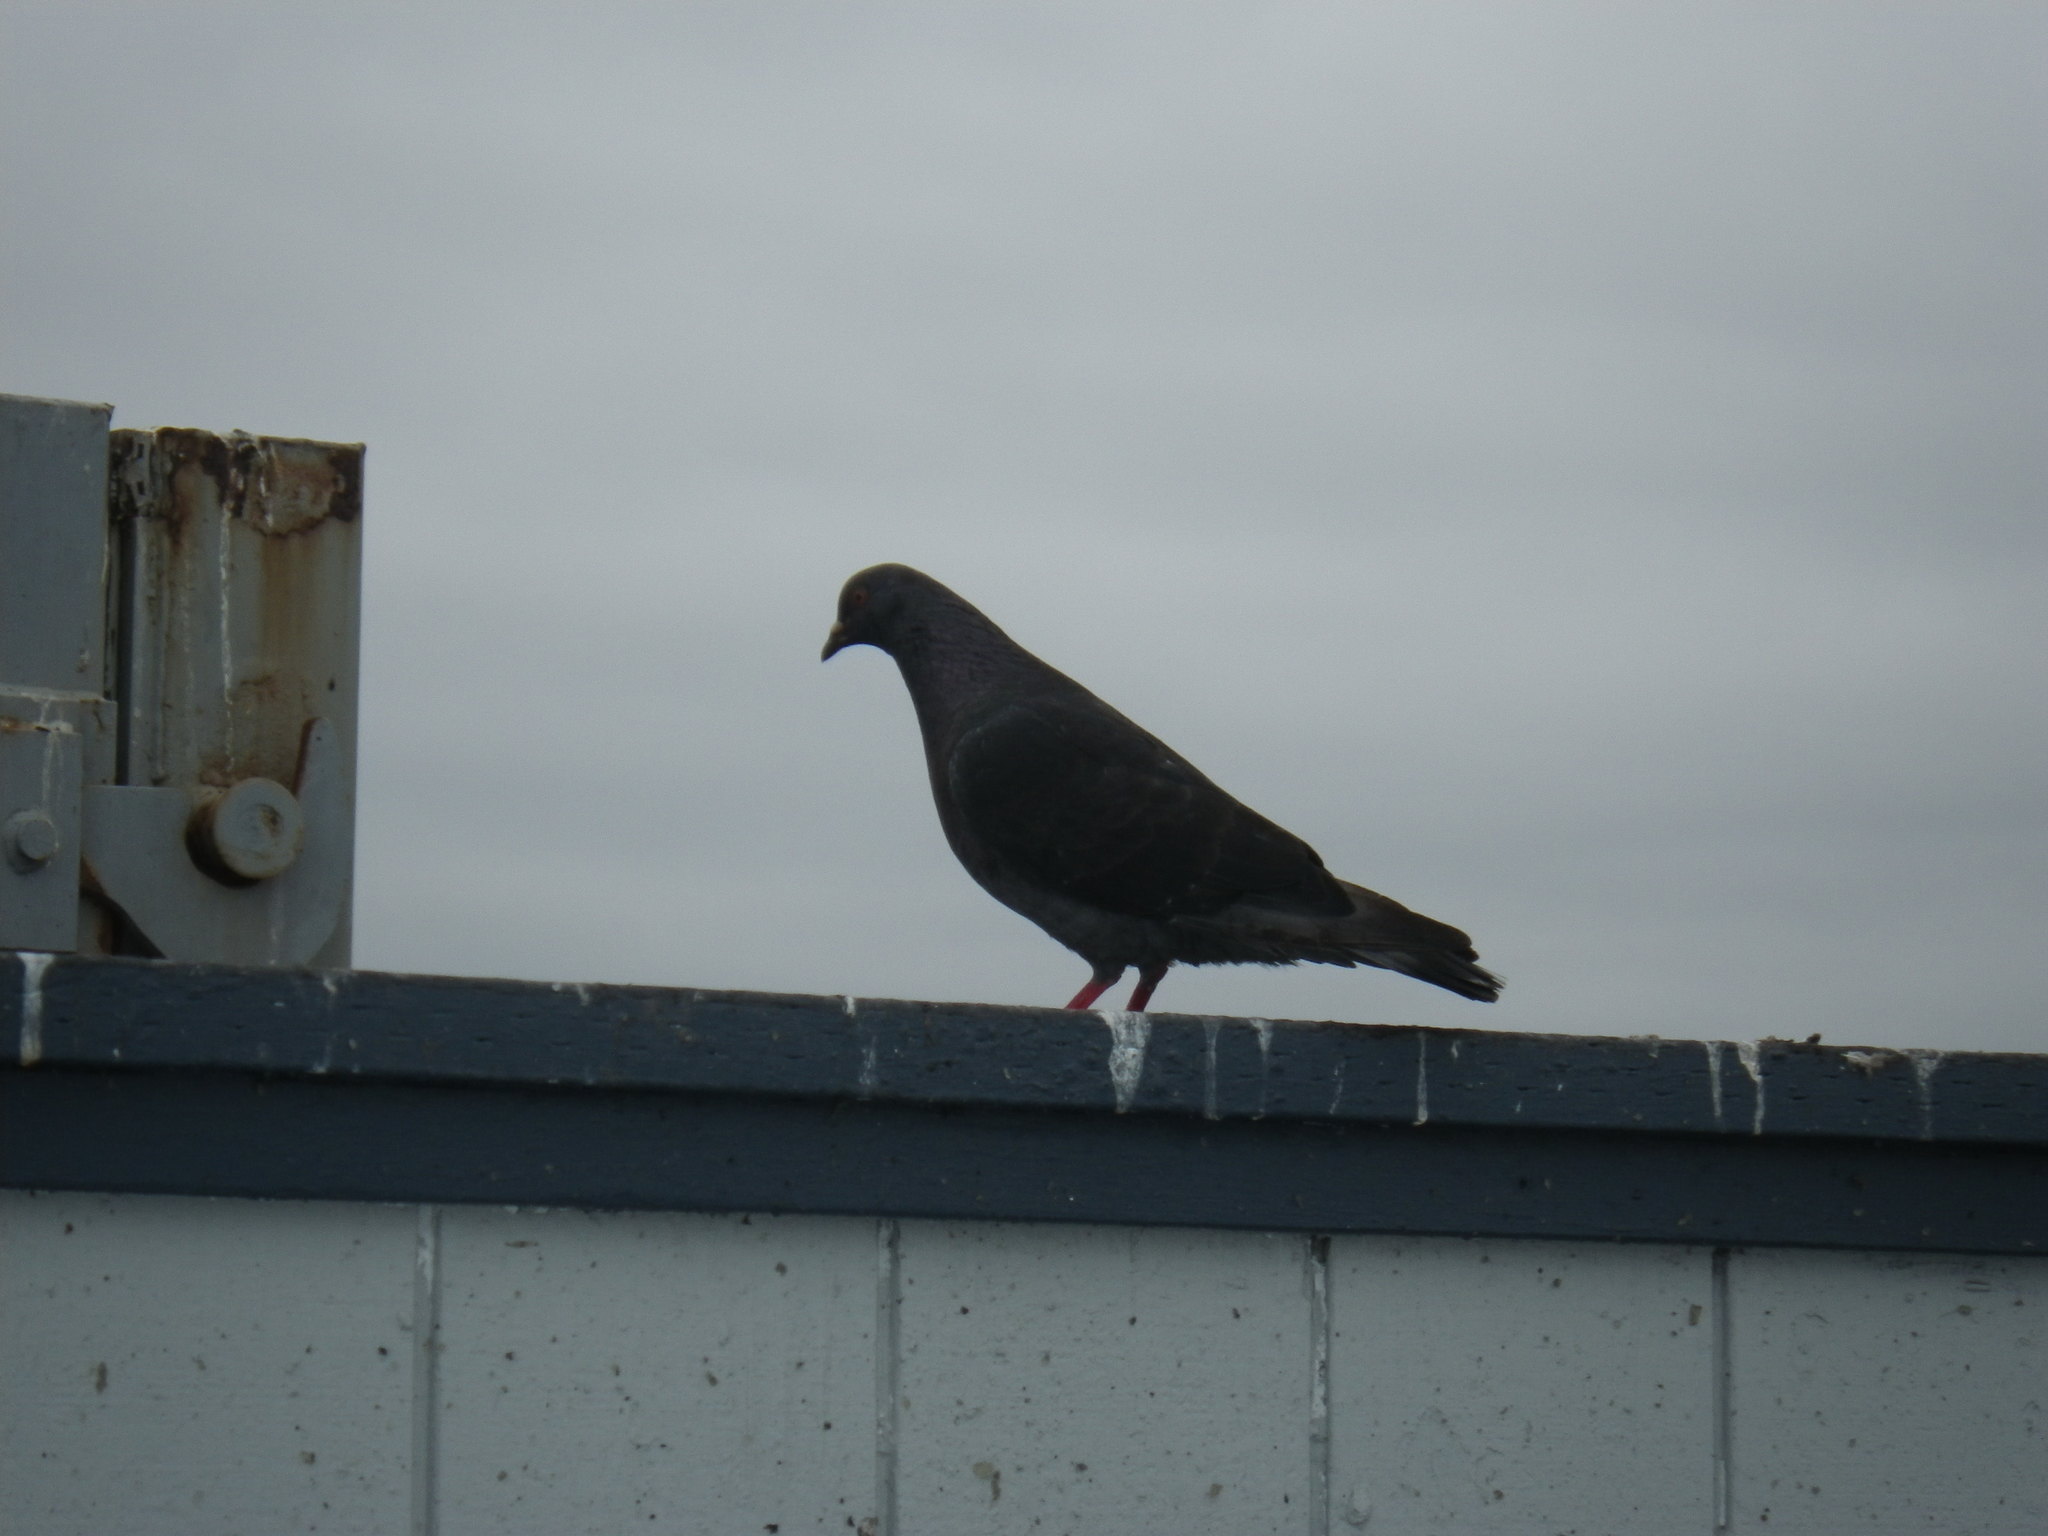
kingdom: Animalia
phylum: Chordata
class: Aves
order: Columbiformes
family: Columbidae
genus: Columba
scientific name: Columba livia
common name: Rock pigeon
